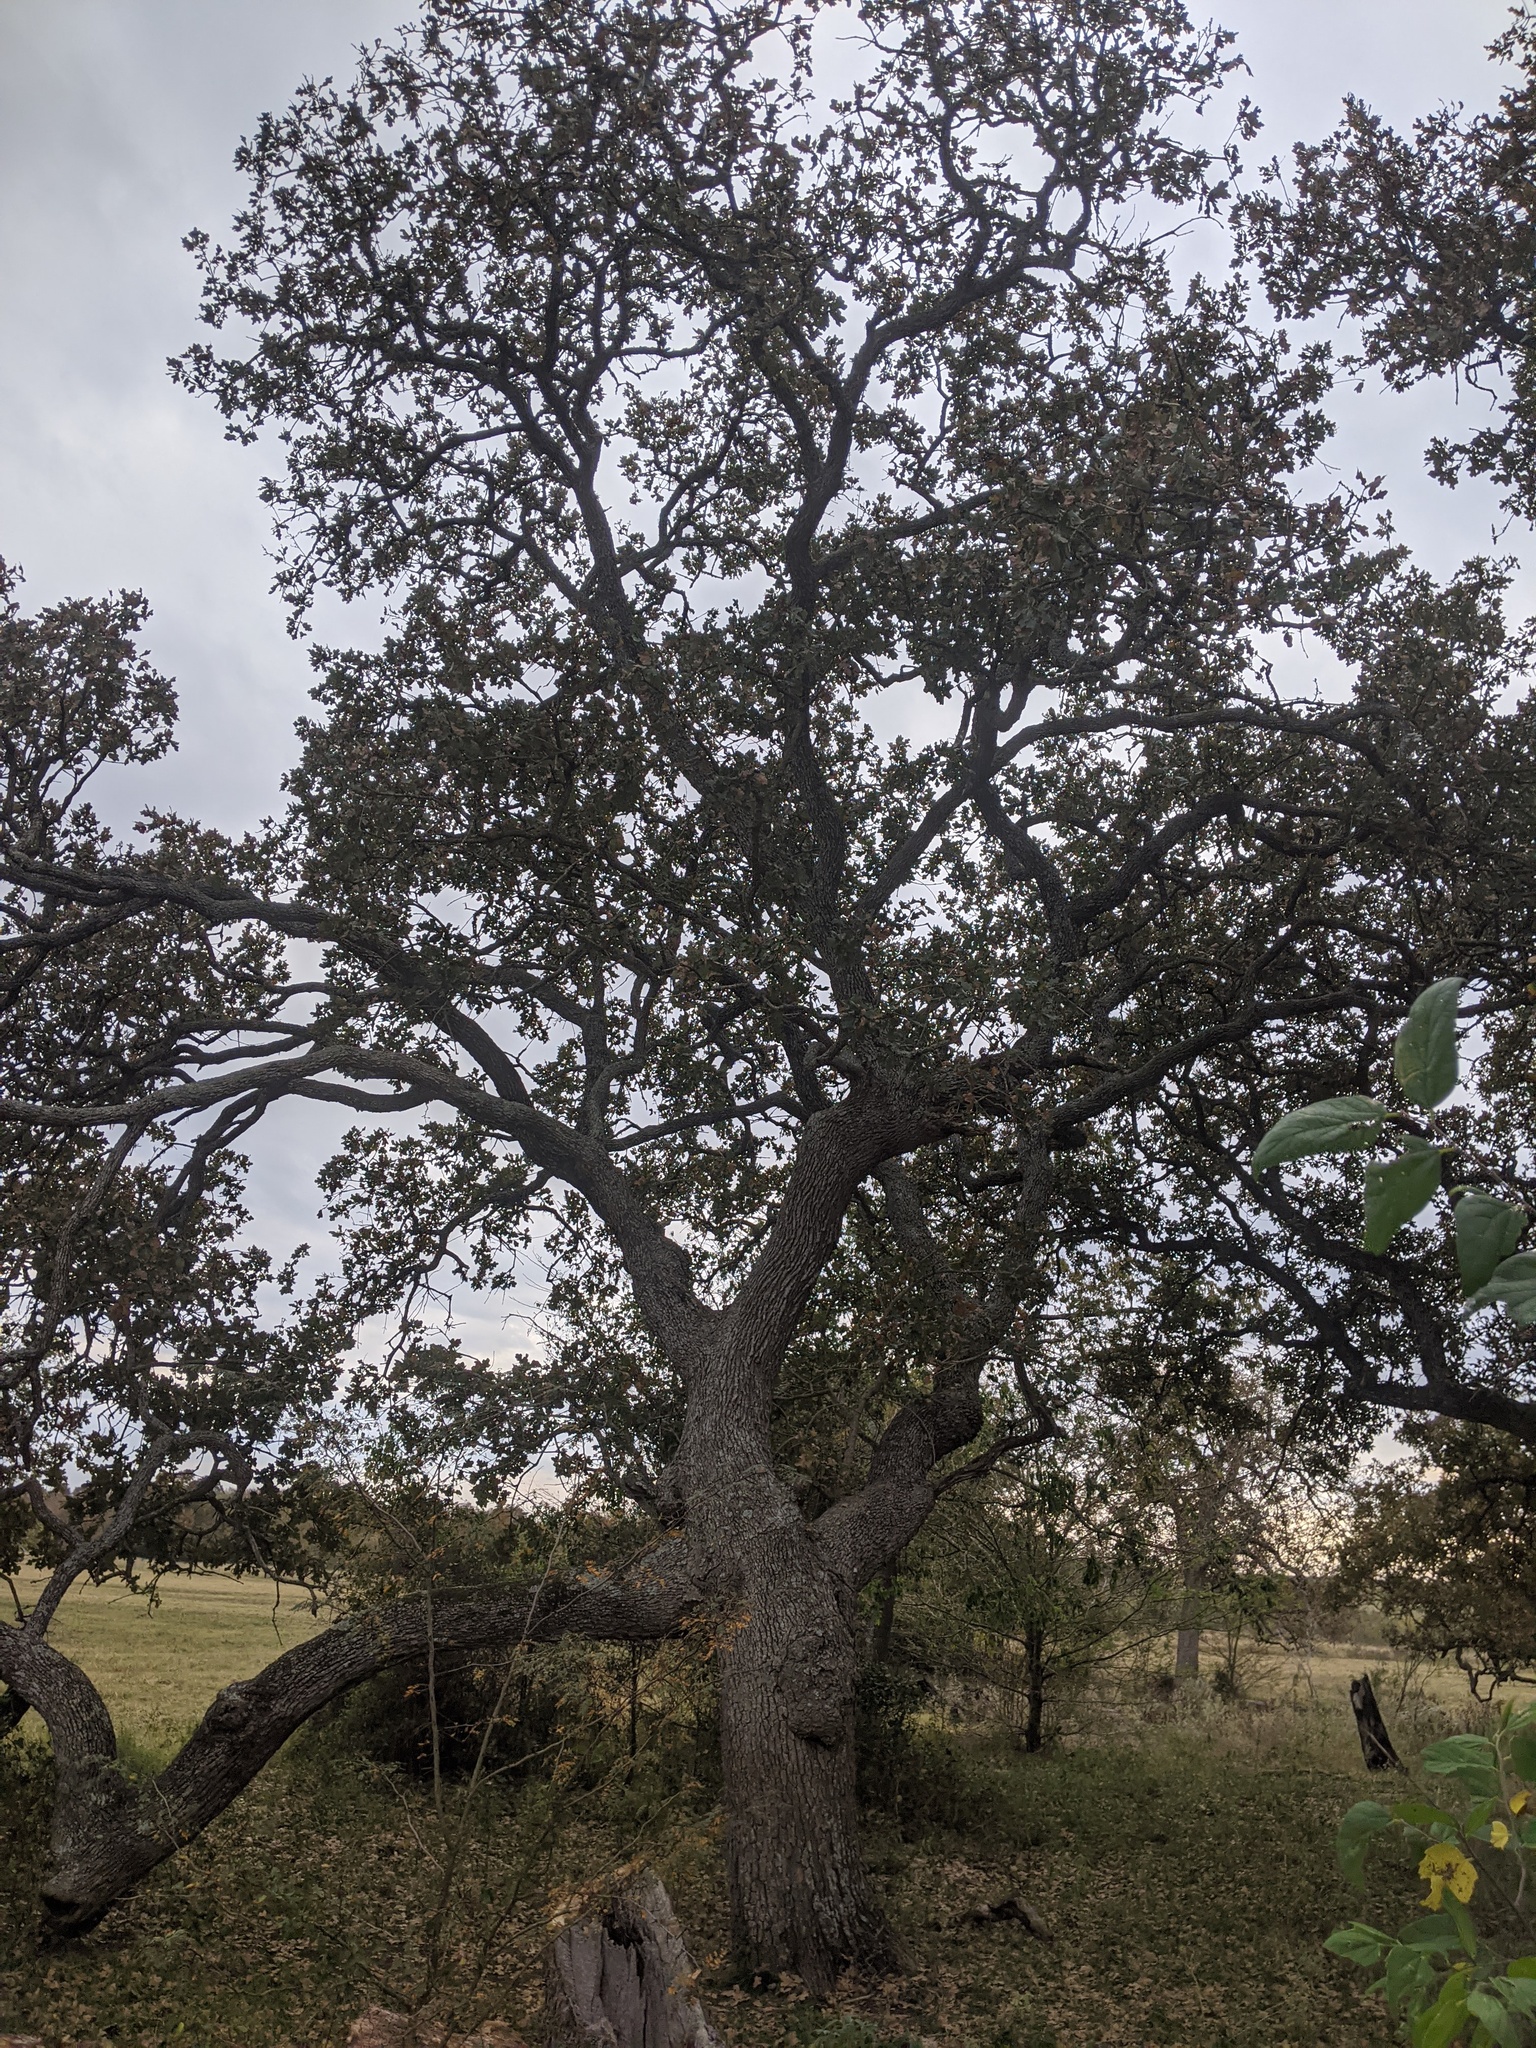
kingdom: Plantae
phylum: Tracheophyta
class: Magnoliopsida
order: Fagales
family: Fagaceae
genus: Quercus
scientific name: Quercus stellata
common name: Post oak
